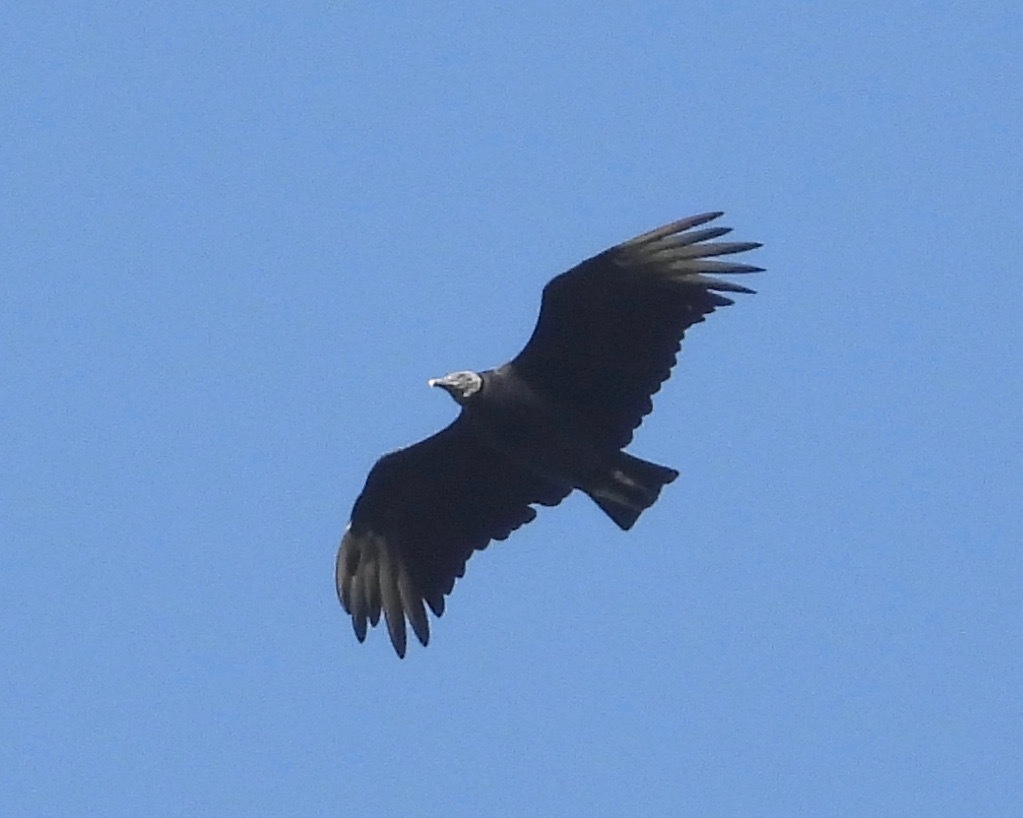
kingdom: Animalia
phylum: Chordata
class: Aves
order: Accipitriformes
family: Cathartidae
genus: Coragyps
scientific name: Coragyps atratus
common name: Black vulture
